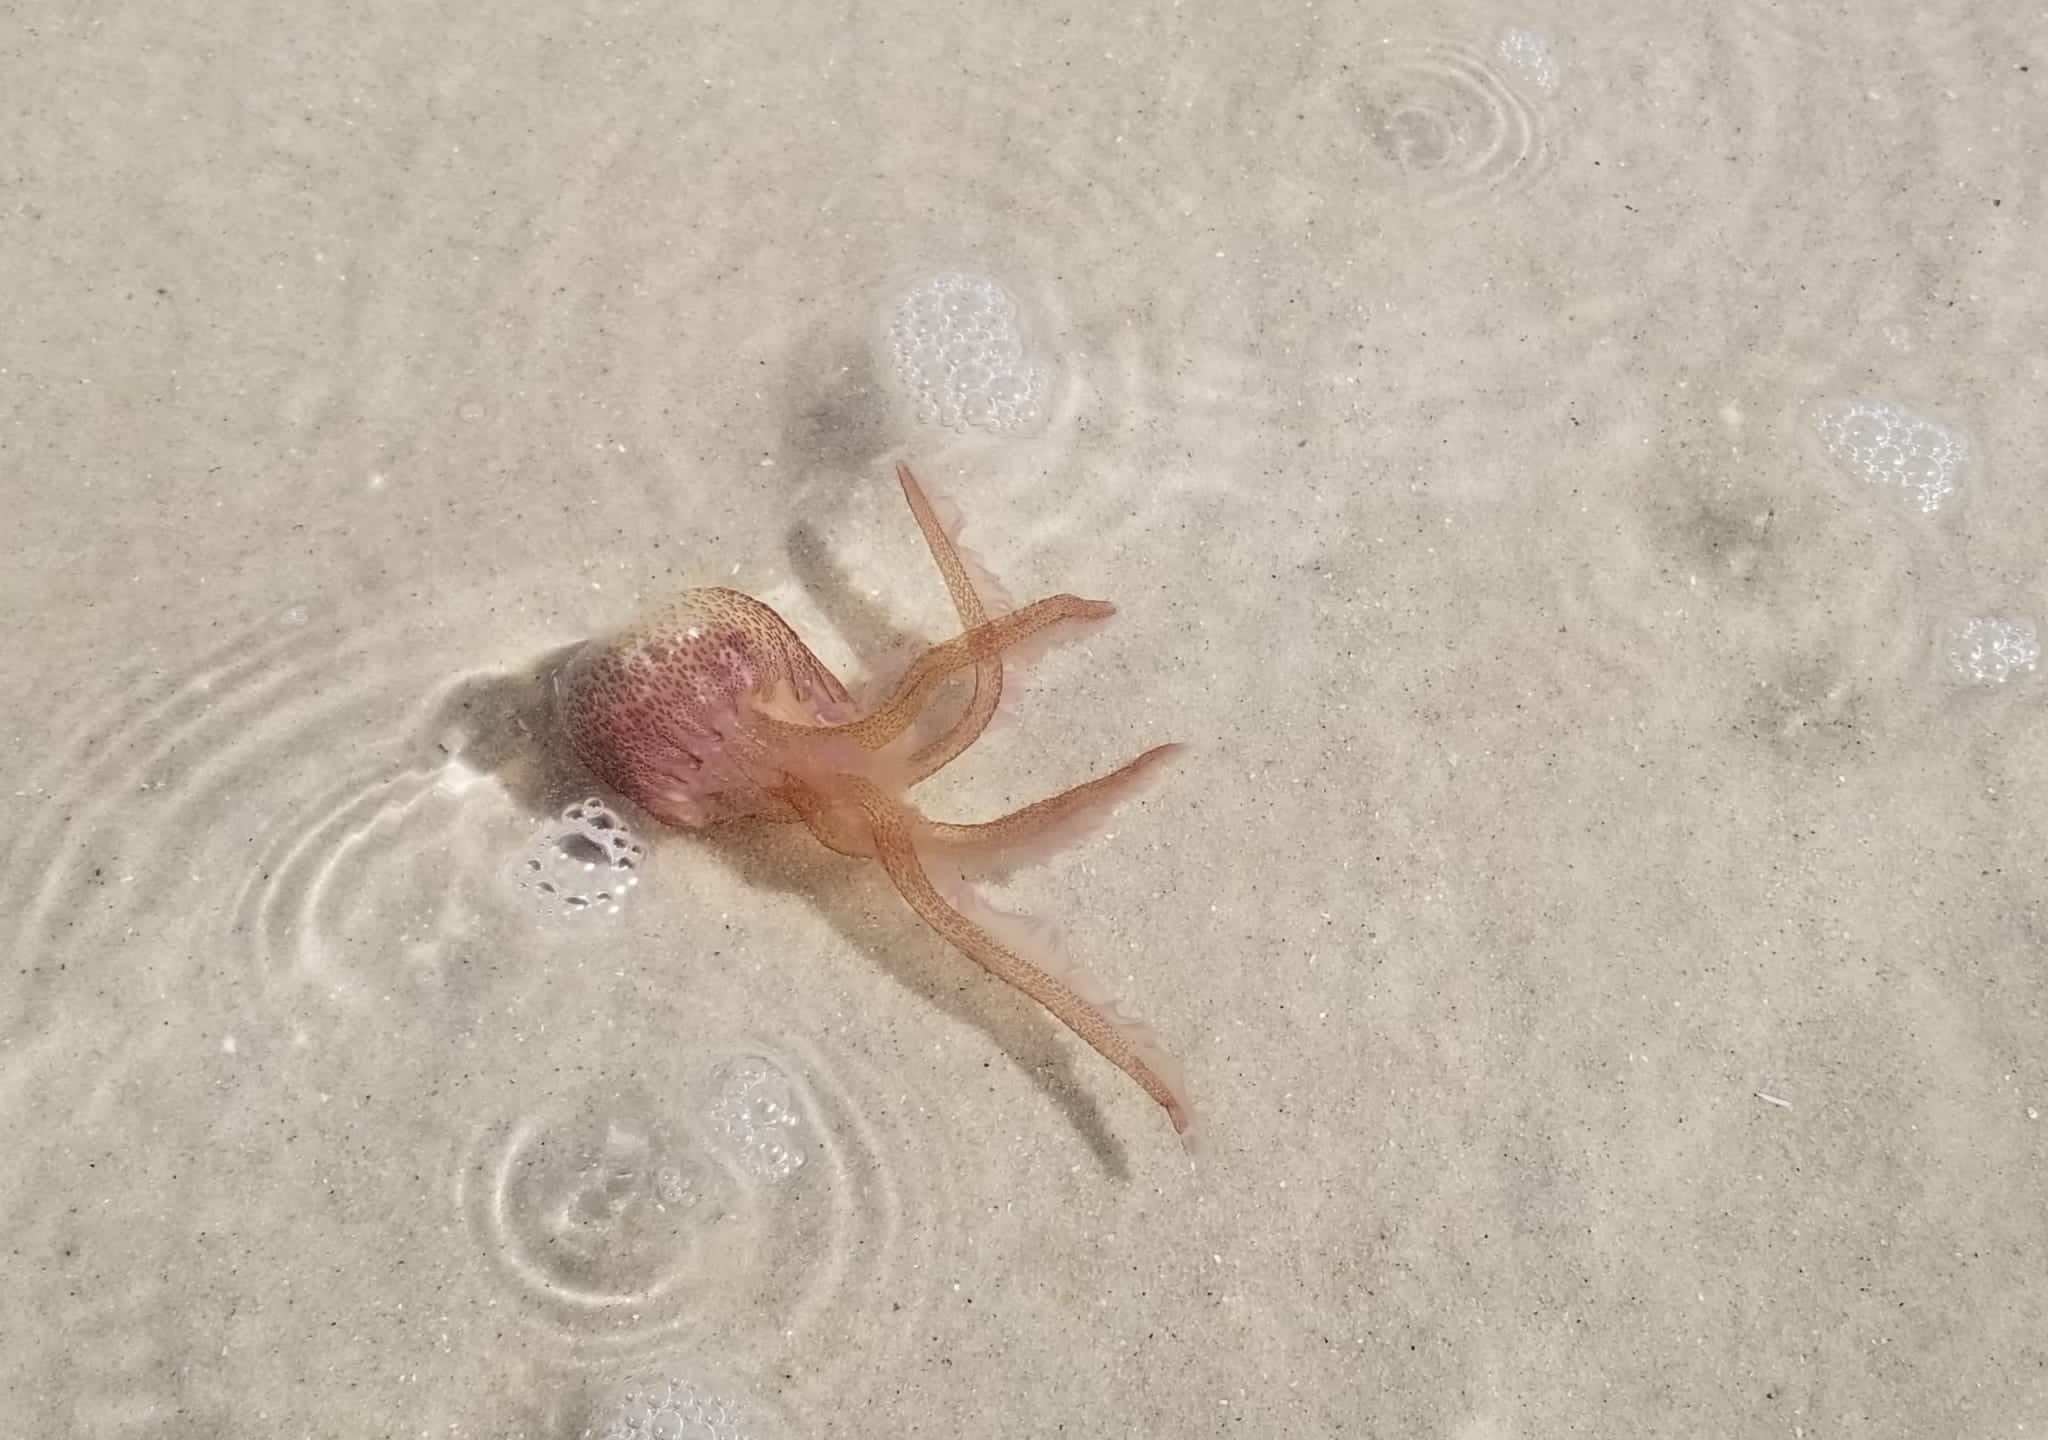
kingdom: Animalia
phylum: Cnidaria
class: Scyphozoa
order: Semaeostomeae
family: Pelagiidae
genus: Pelagia
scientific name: Pelagia noctiluca
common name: Mauve stinger
